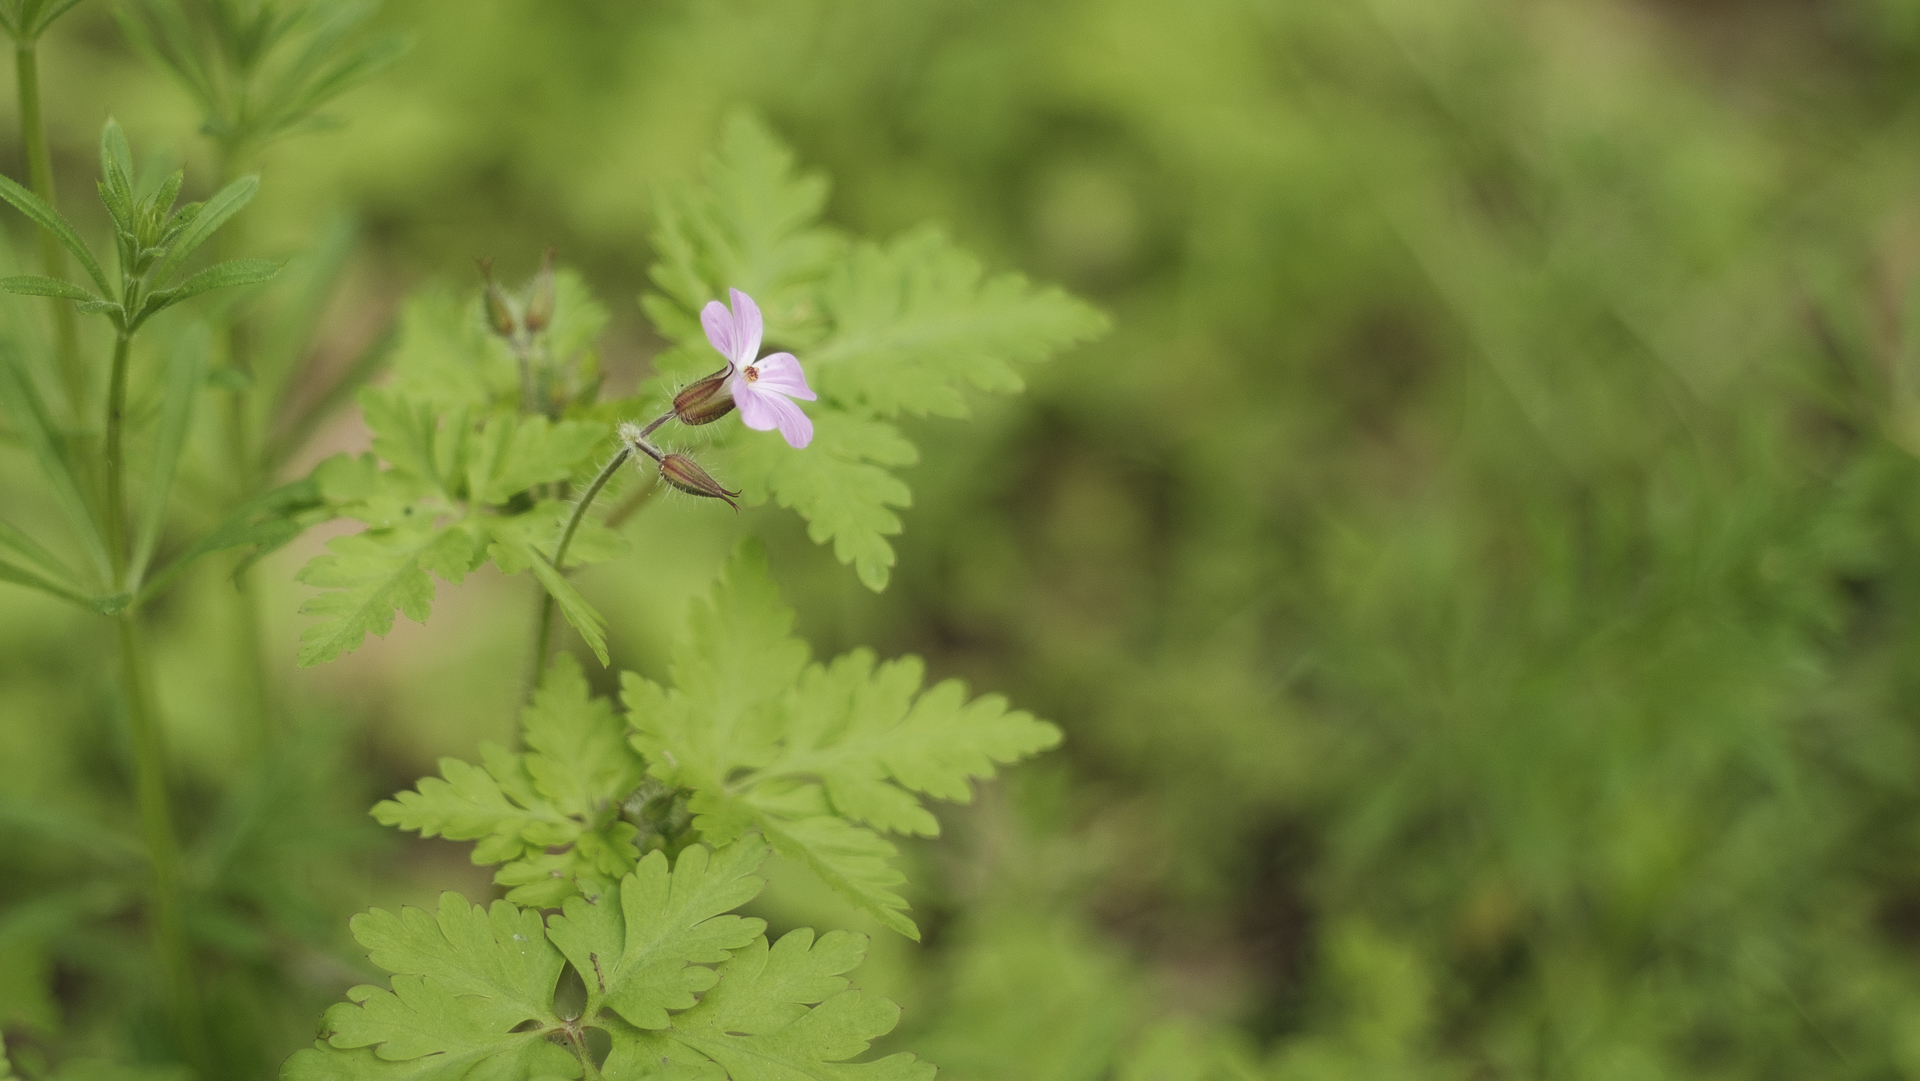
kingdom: Plantae
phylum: Tracheophyta
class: Magnoliopsida
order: Geraniales
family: Geraniaceae
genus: Geranium
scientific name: Geranium robertianum
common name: Herb-robert
